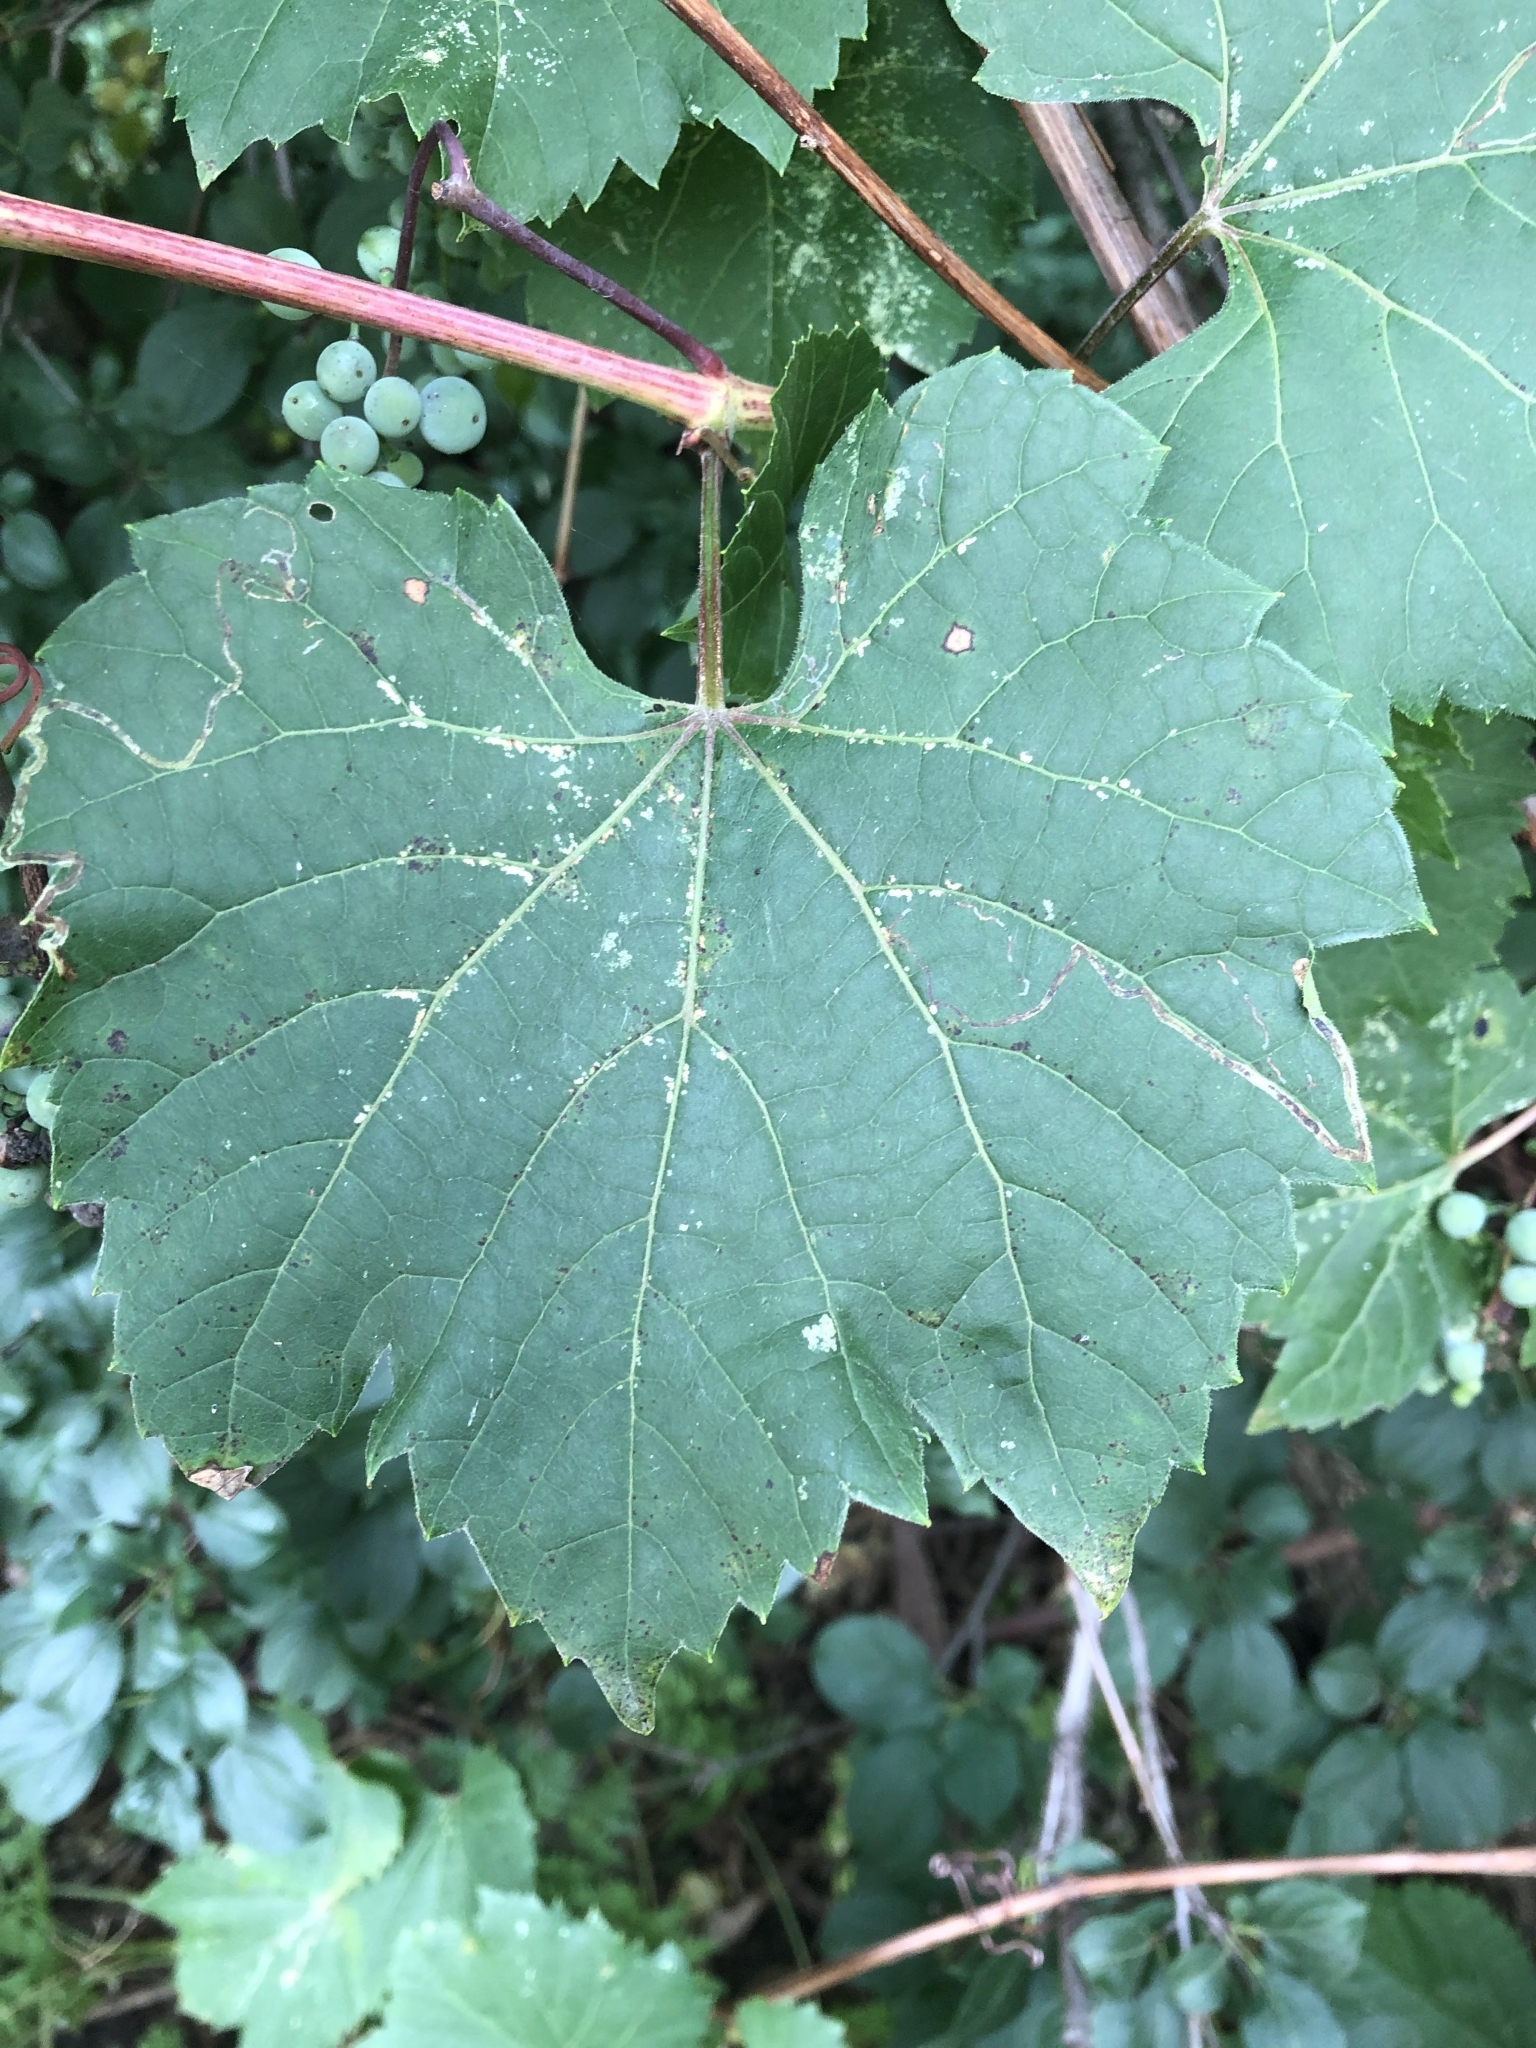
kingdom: Plantae
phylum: Tracheophyta
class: Magnoliopsida
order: Vitales
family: Vitaceae
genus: Vitis
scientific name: Vitis riparia
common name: Frost grape
